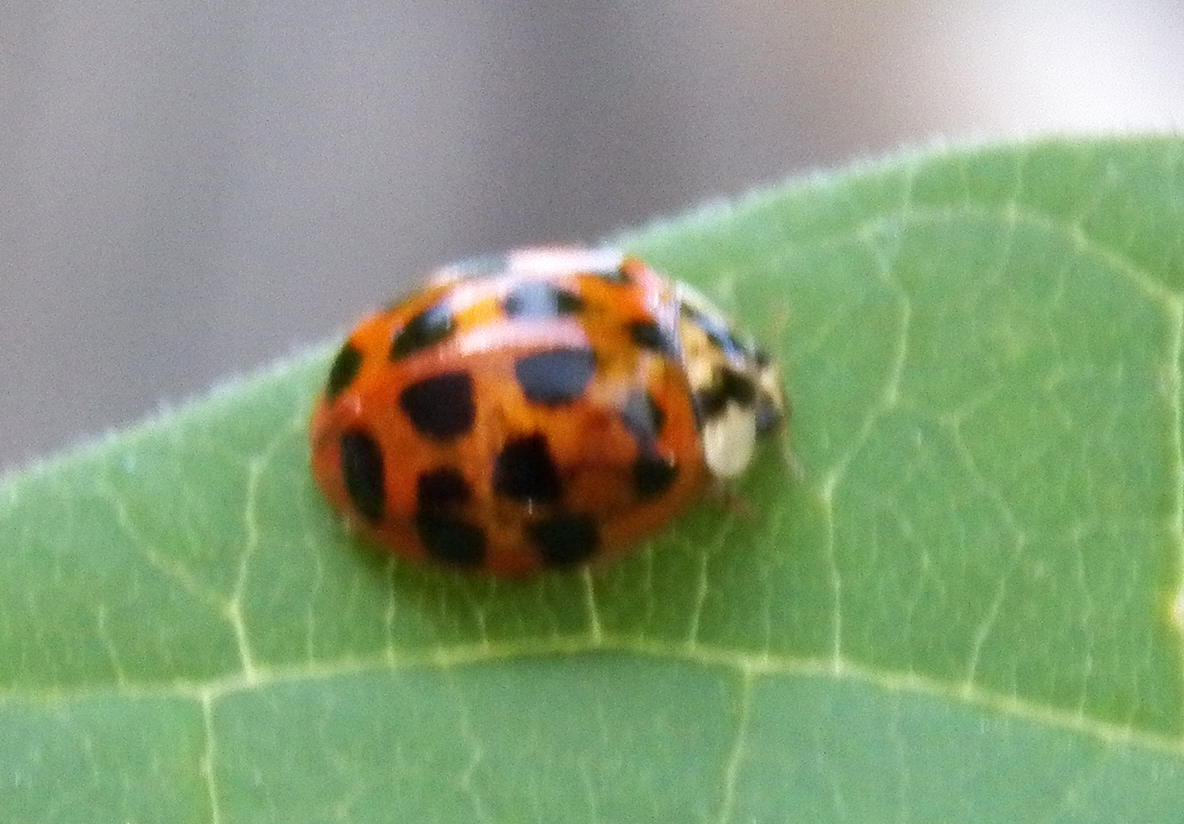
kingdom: Animalia
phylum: Arthropoda
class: Insecta
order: Coleoptera
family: Coccinellidae
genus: Harmonia
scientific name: Harmonia axyridis
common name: Harlequin ladybird
